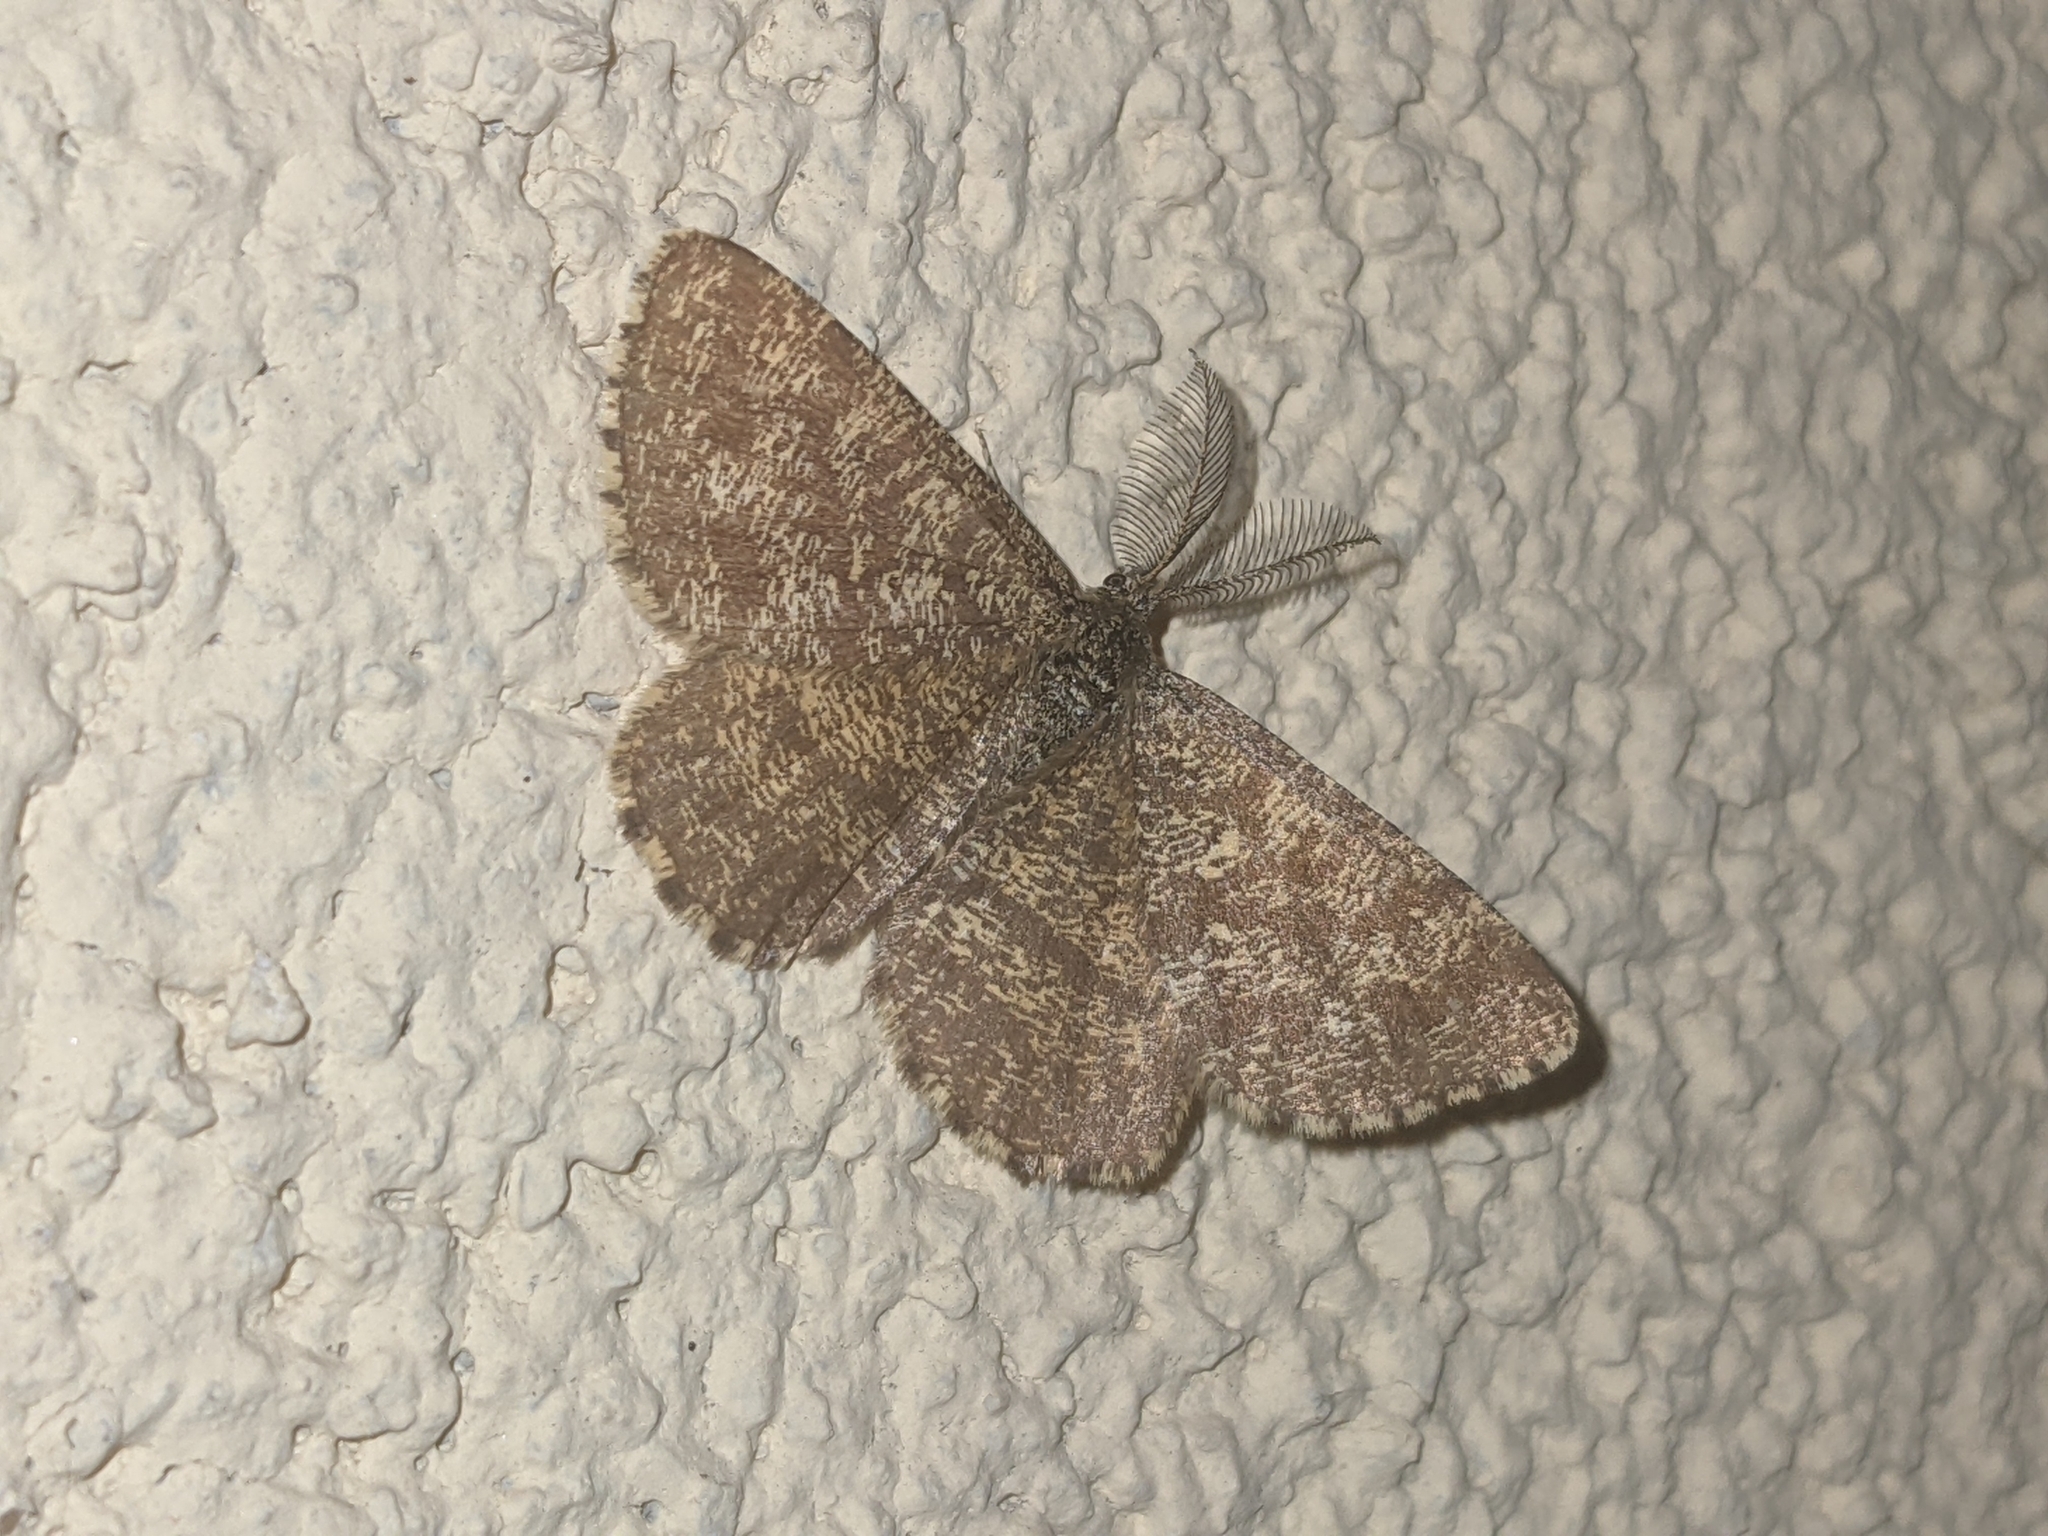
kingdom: Animalia
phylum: Arthropoda
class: Insecta
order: Lepidoptera
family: Geometridae
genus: Ematurga
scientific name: Ematurga atomaria
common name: Common heath
